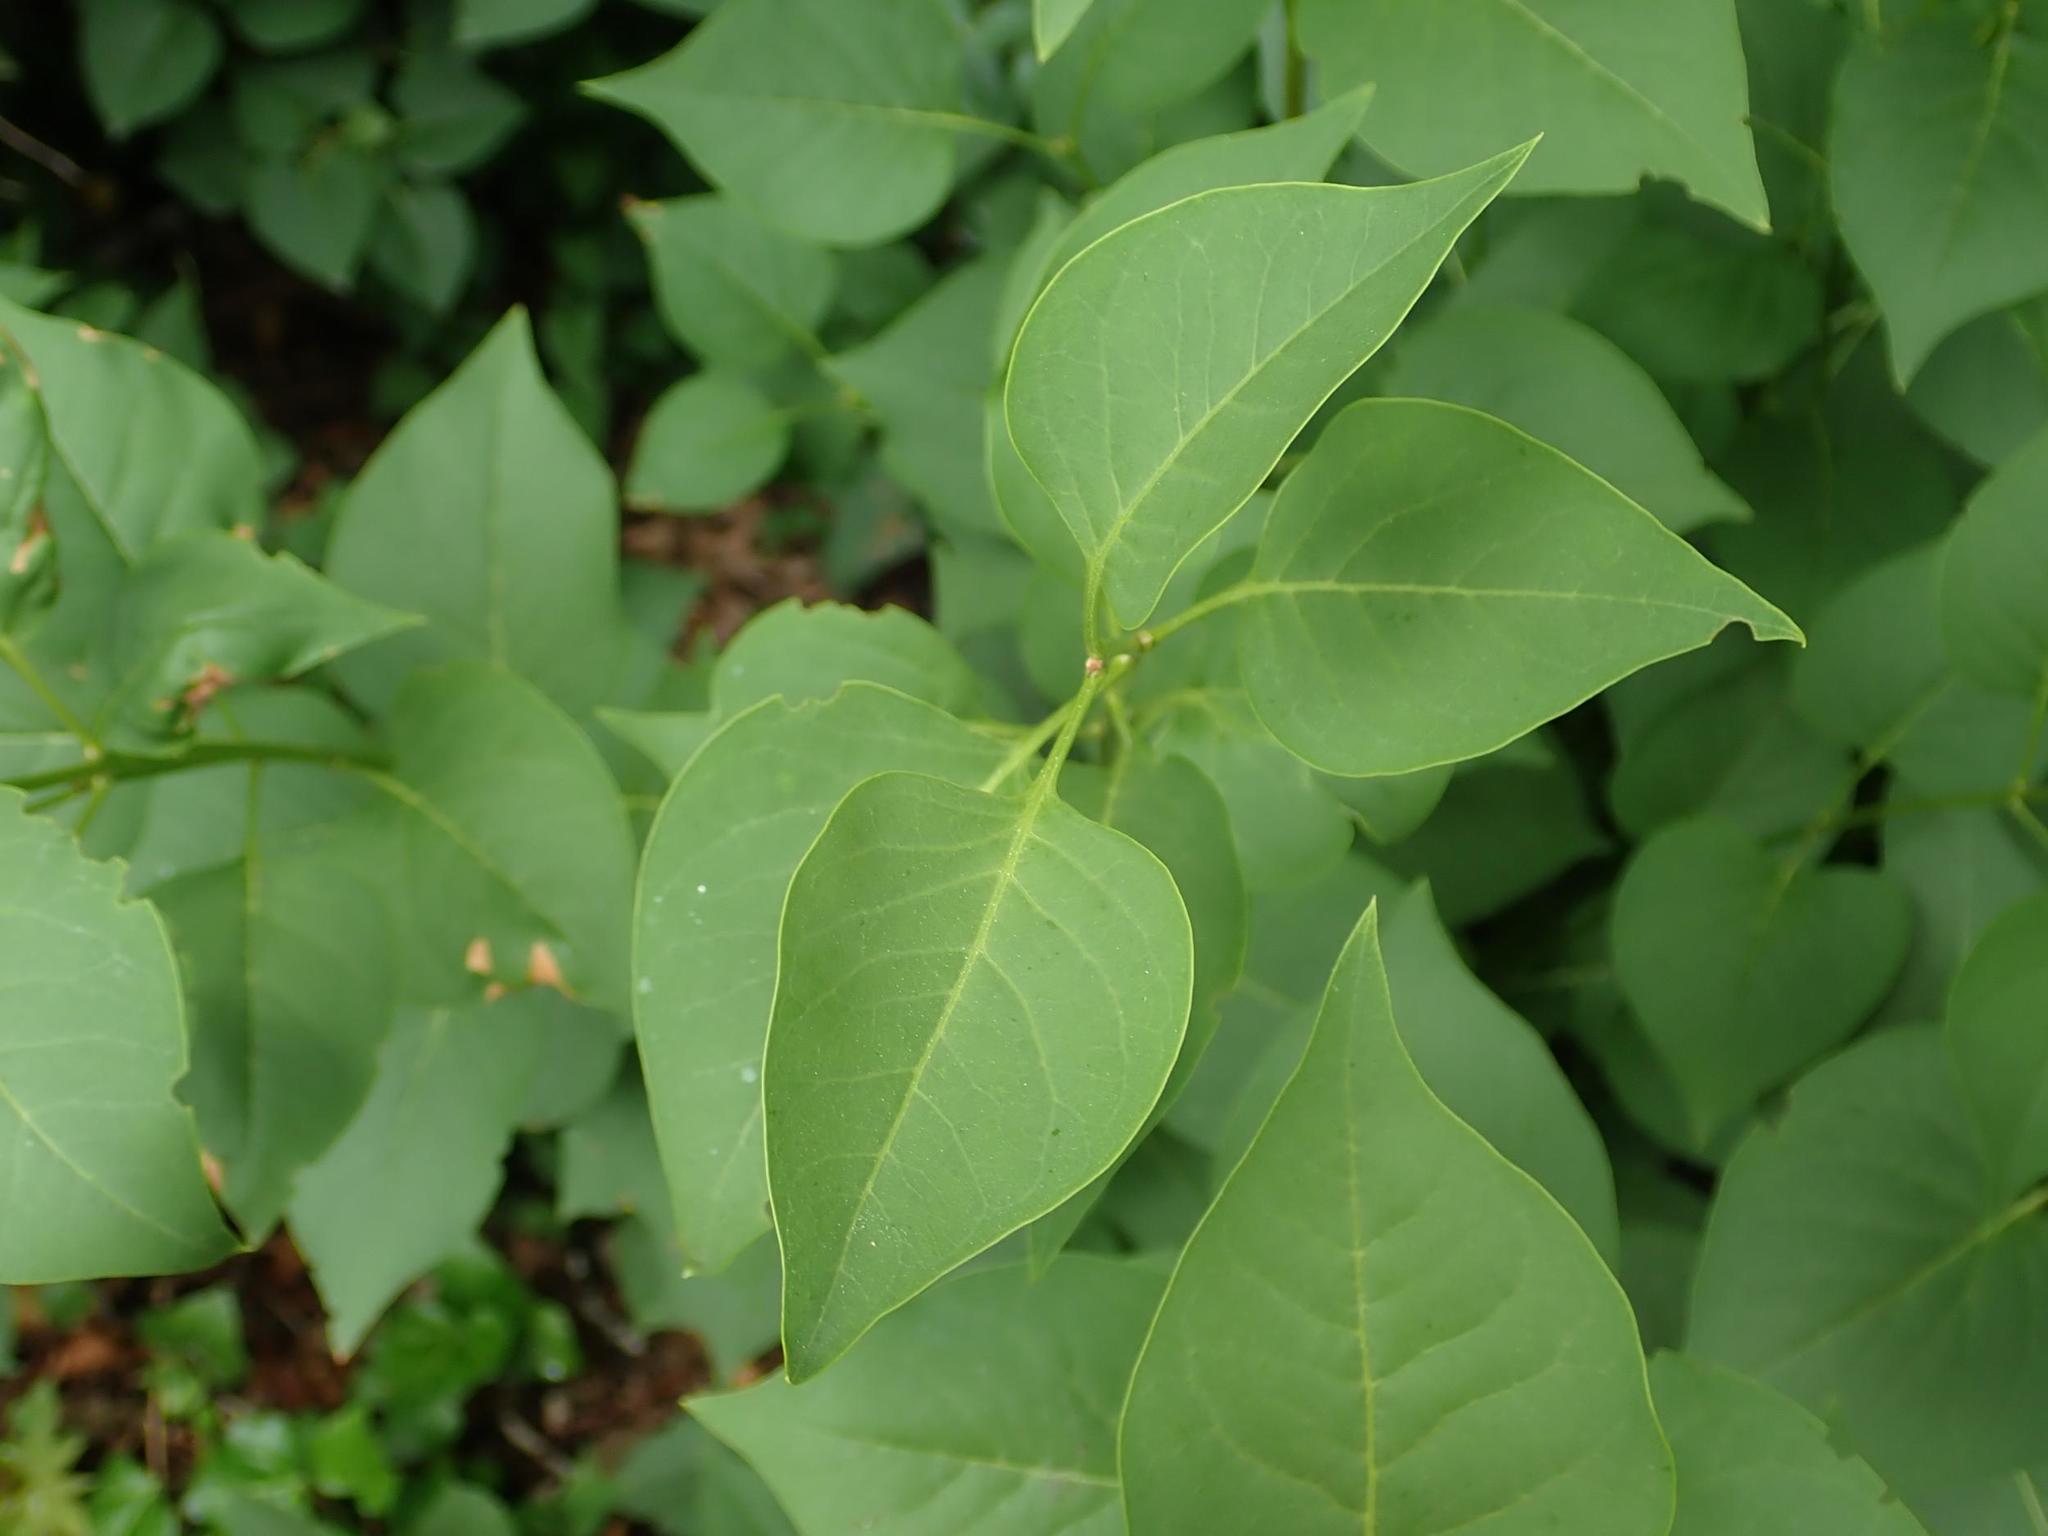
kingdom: Plantae
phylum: Tracheophyta
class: Magnoliopsida
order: Lamiales
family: Oleaceae
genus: Syringa
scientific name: Syringa vulgaris
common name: Common lilac
